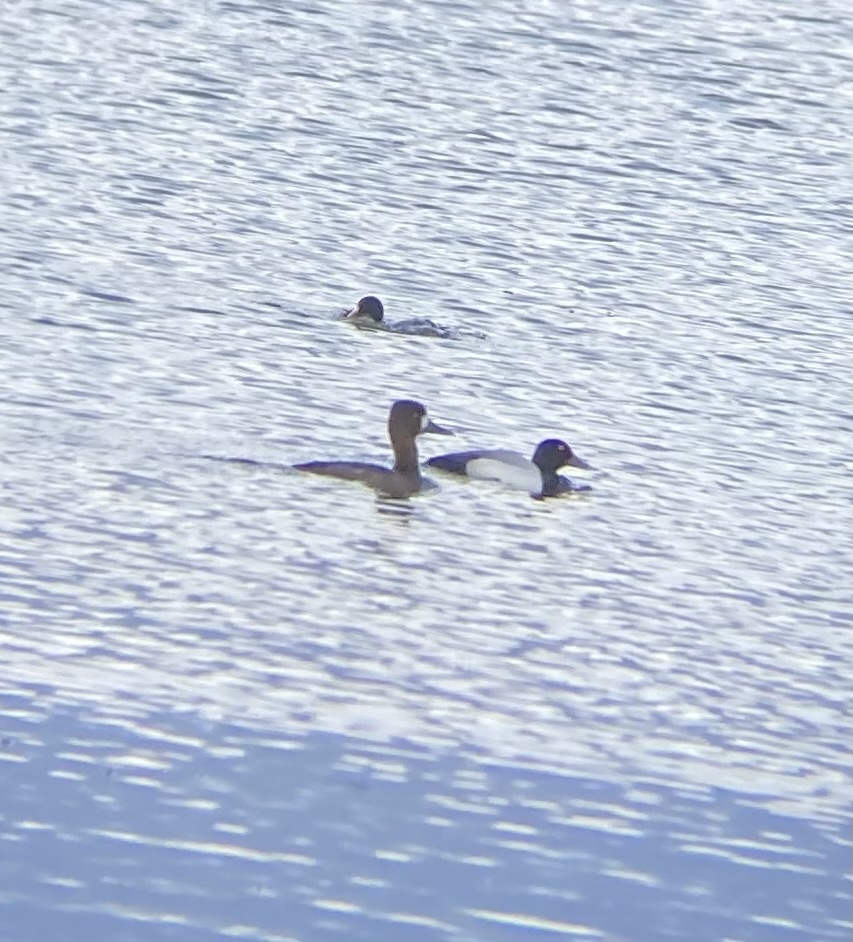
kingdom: Animalia
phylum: Chordata
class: Aves
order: Anseriformes
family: Anatidae
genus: Aythya
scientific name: Aythya marila
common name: Greater scaup
